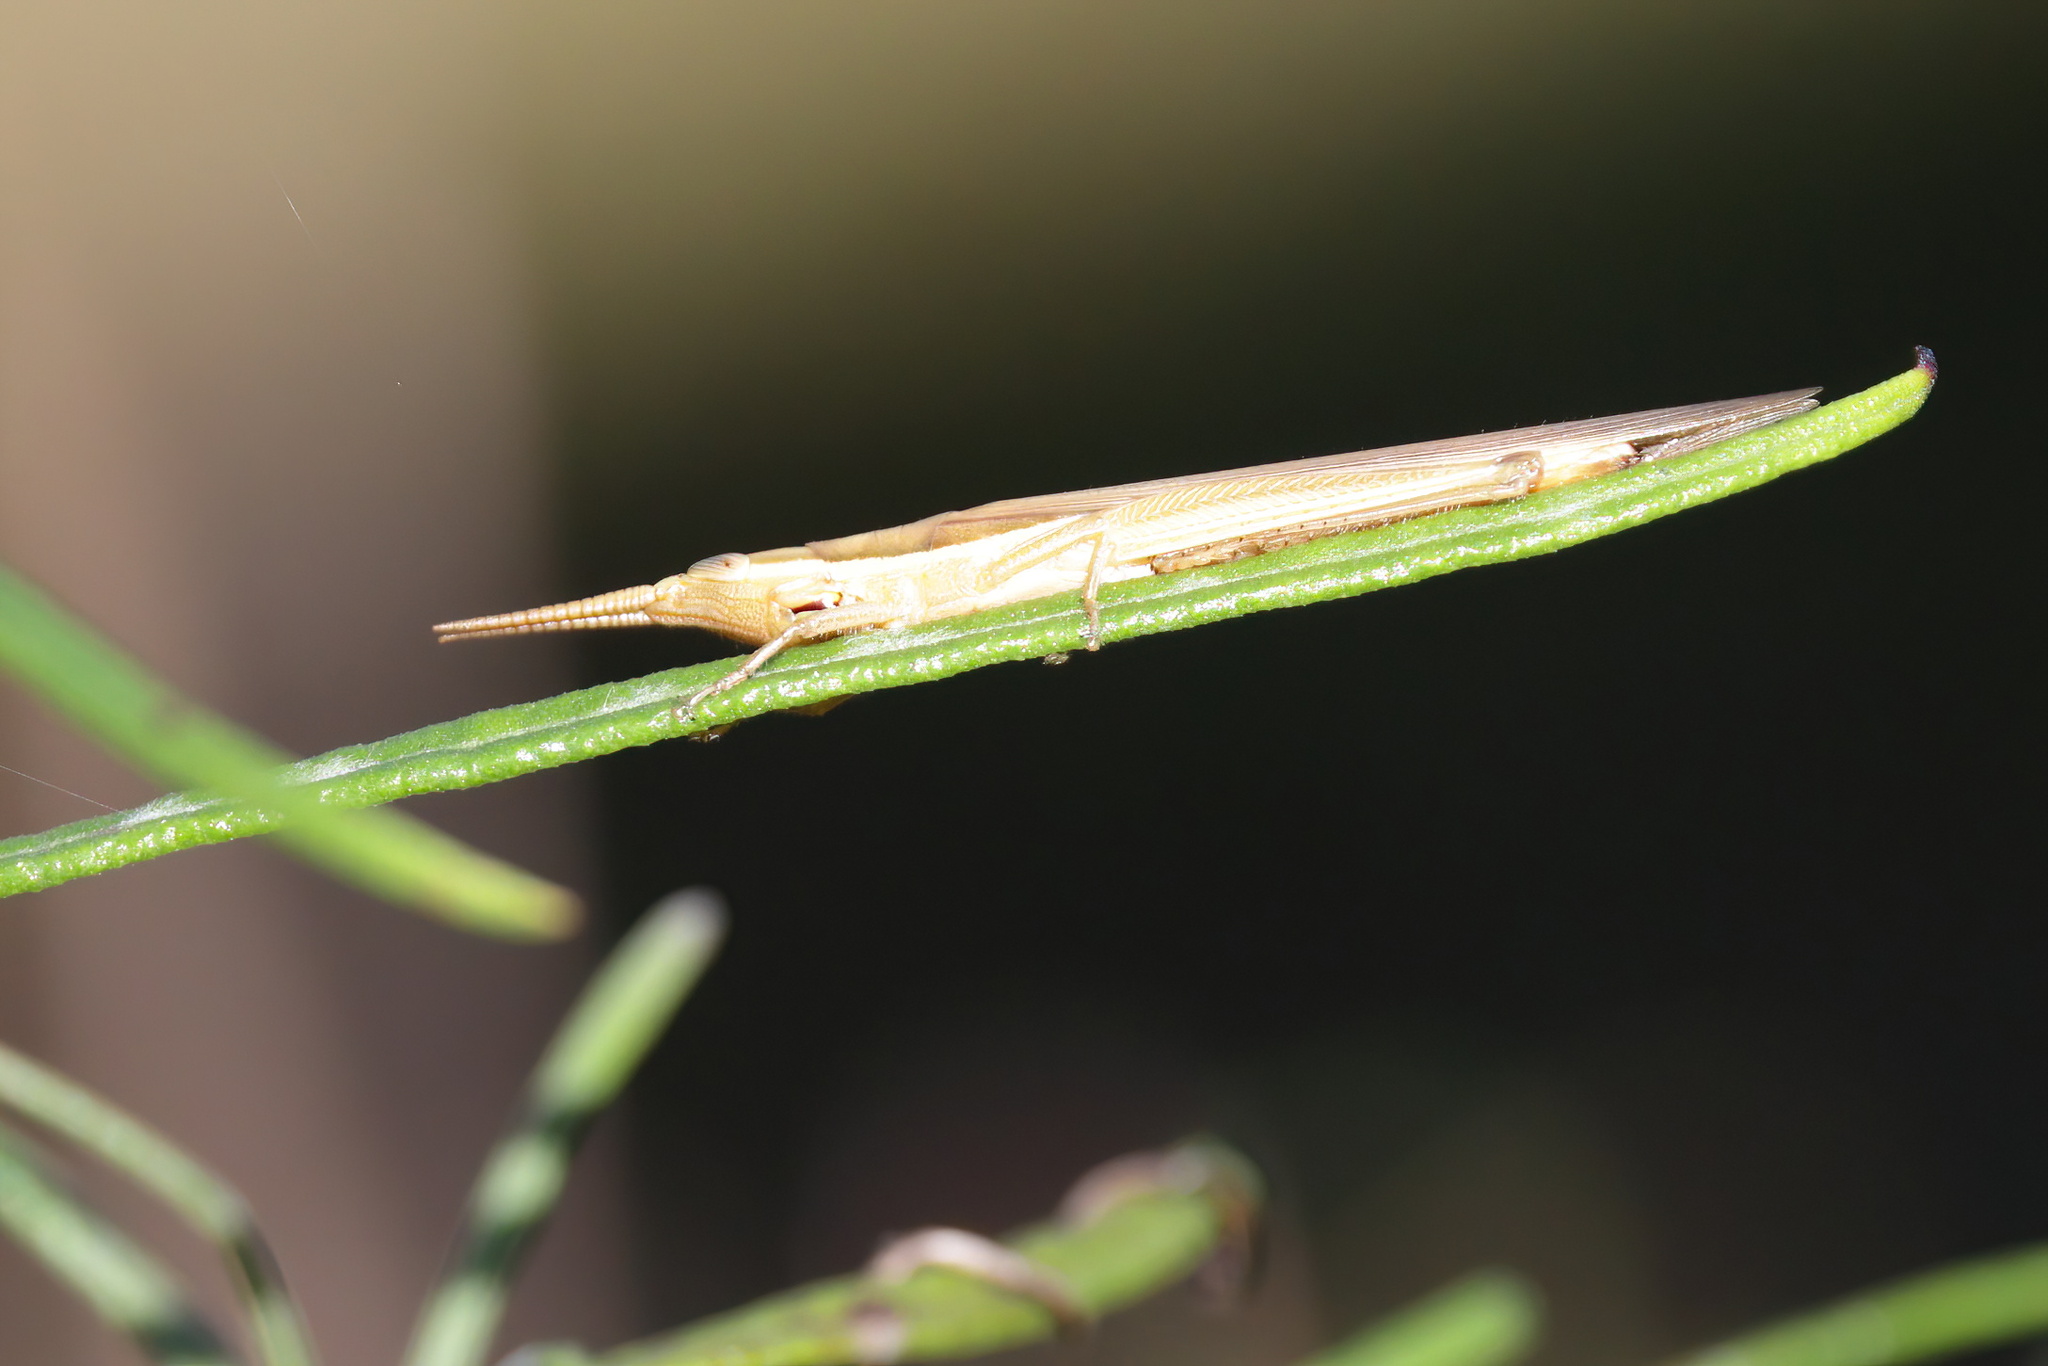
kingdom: Animalia
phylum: Arthropoda
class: Insecta
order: Orthoptera
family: Acrididae
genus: Leptysma
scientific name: Leptysma marginicollis
